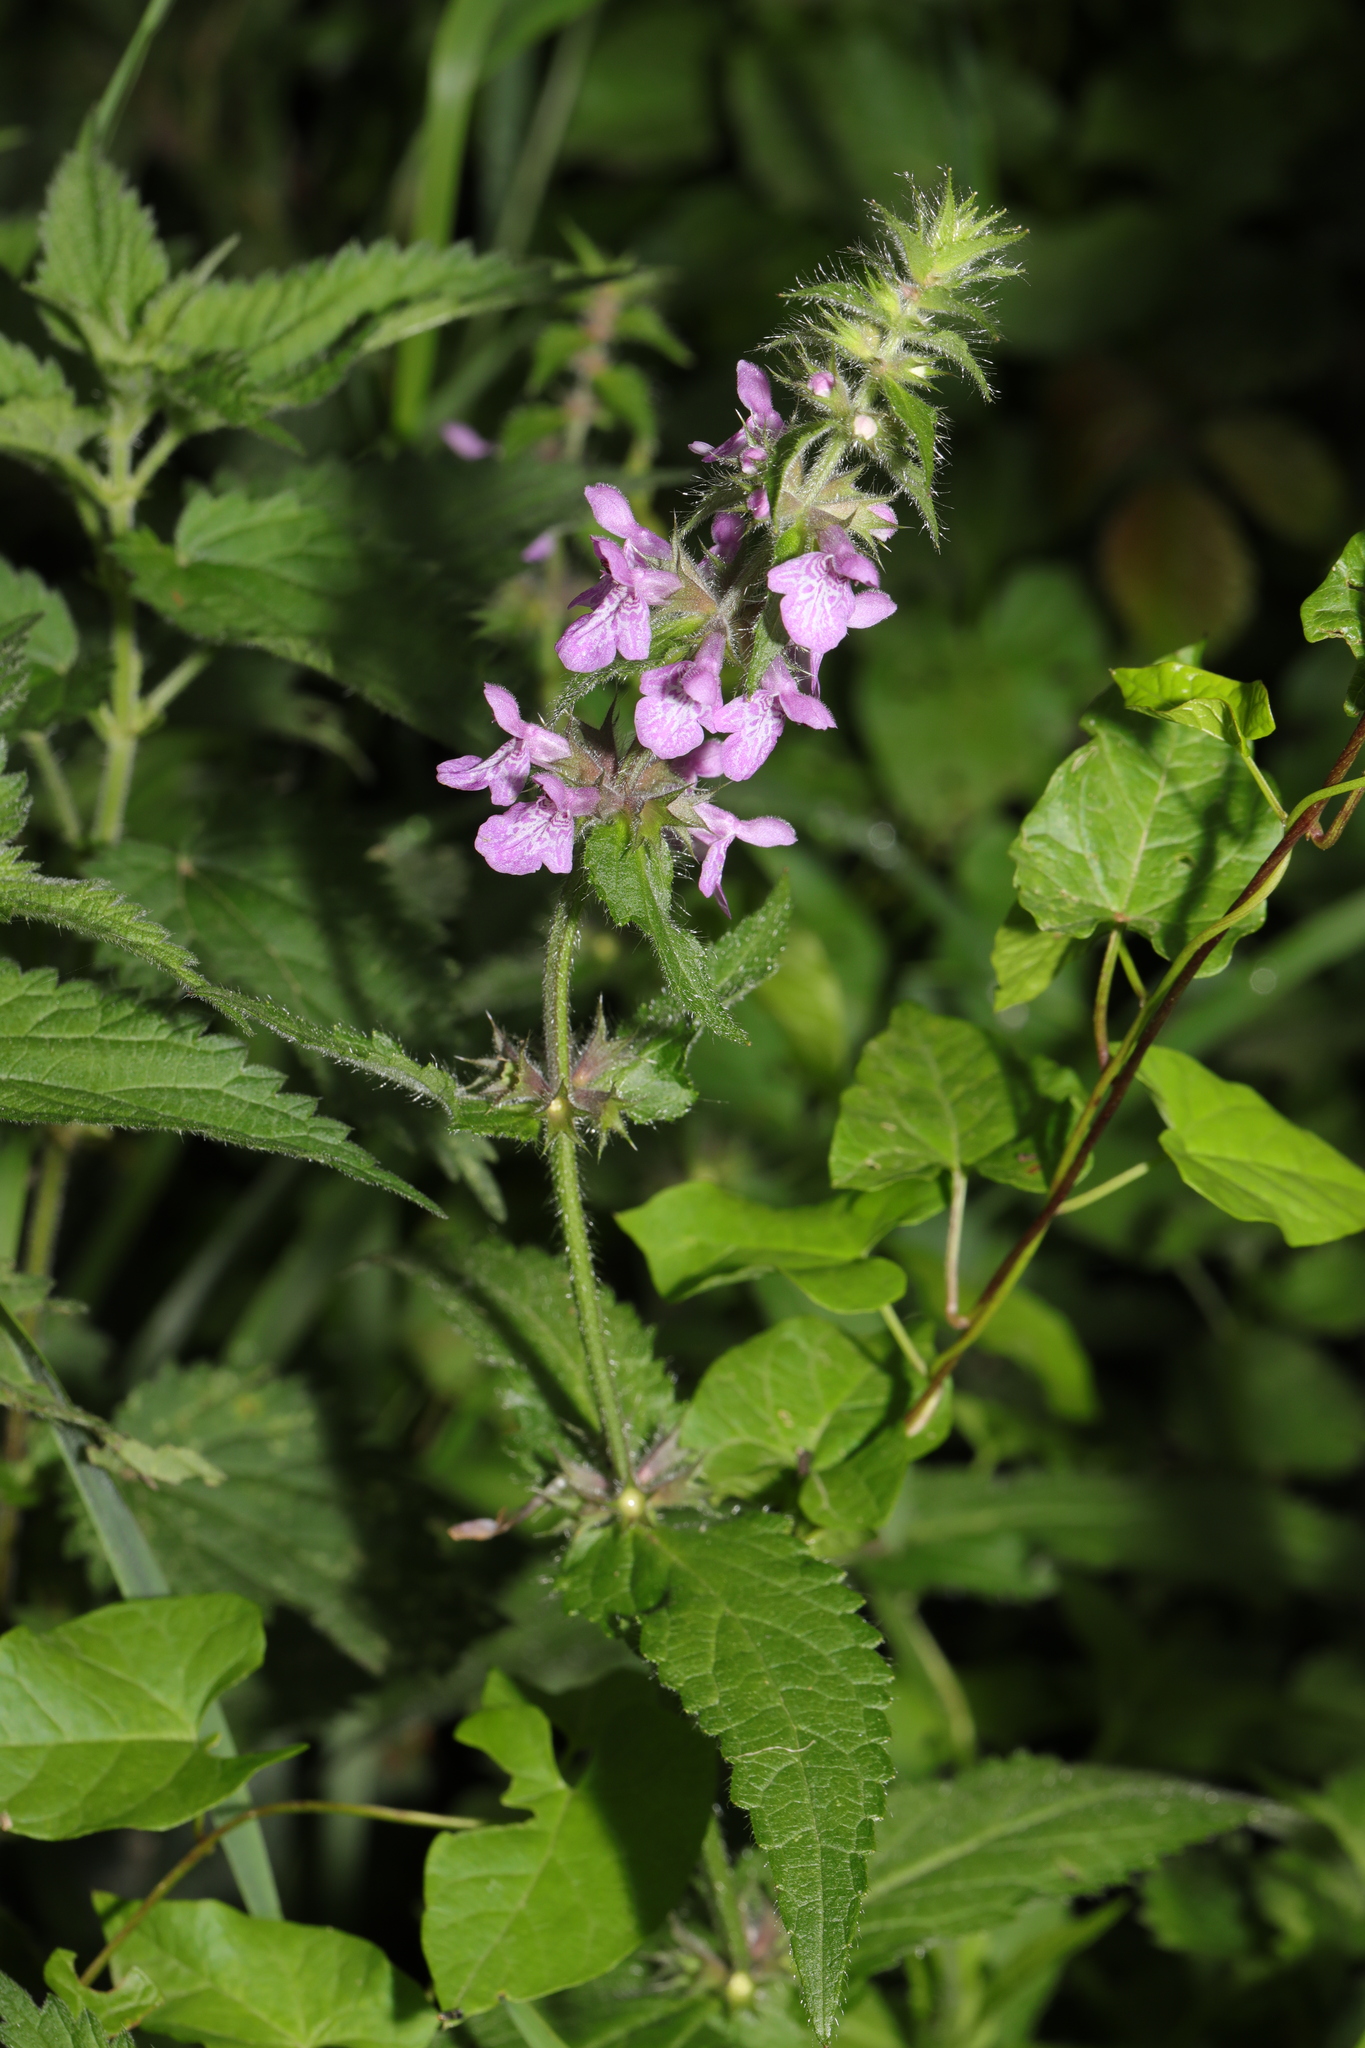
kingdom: Plantae
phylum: Tracheophyta
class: Magnoliopsida
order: Lamiales
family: Lamiaceae
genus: Stachys
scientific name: Stachys palustris
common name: Marsh woundwort
